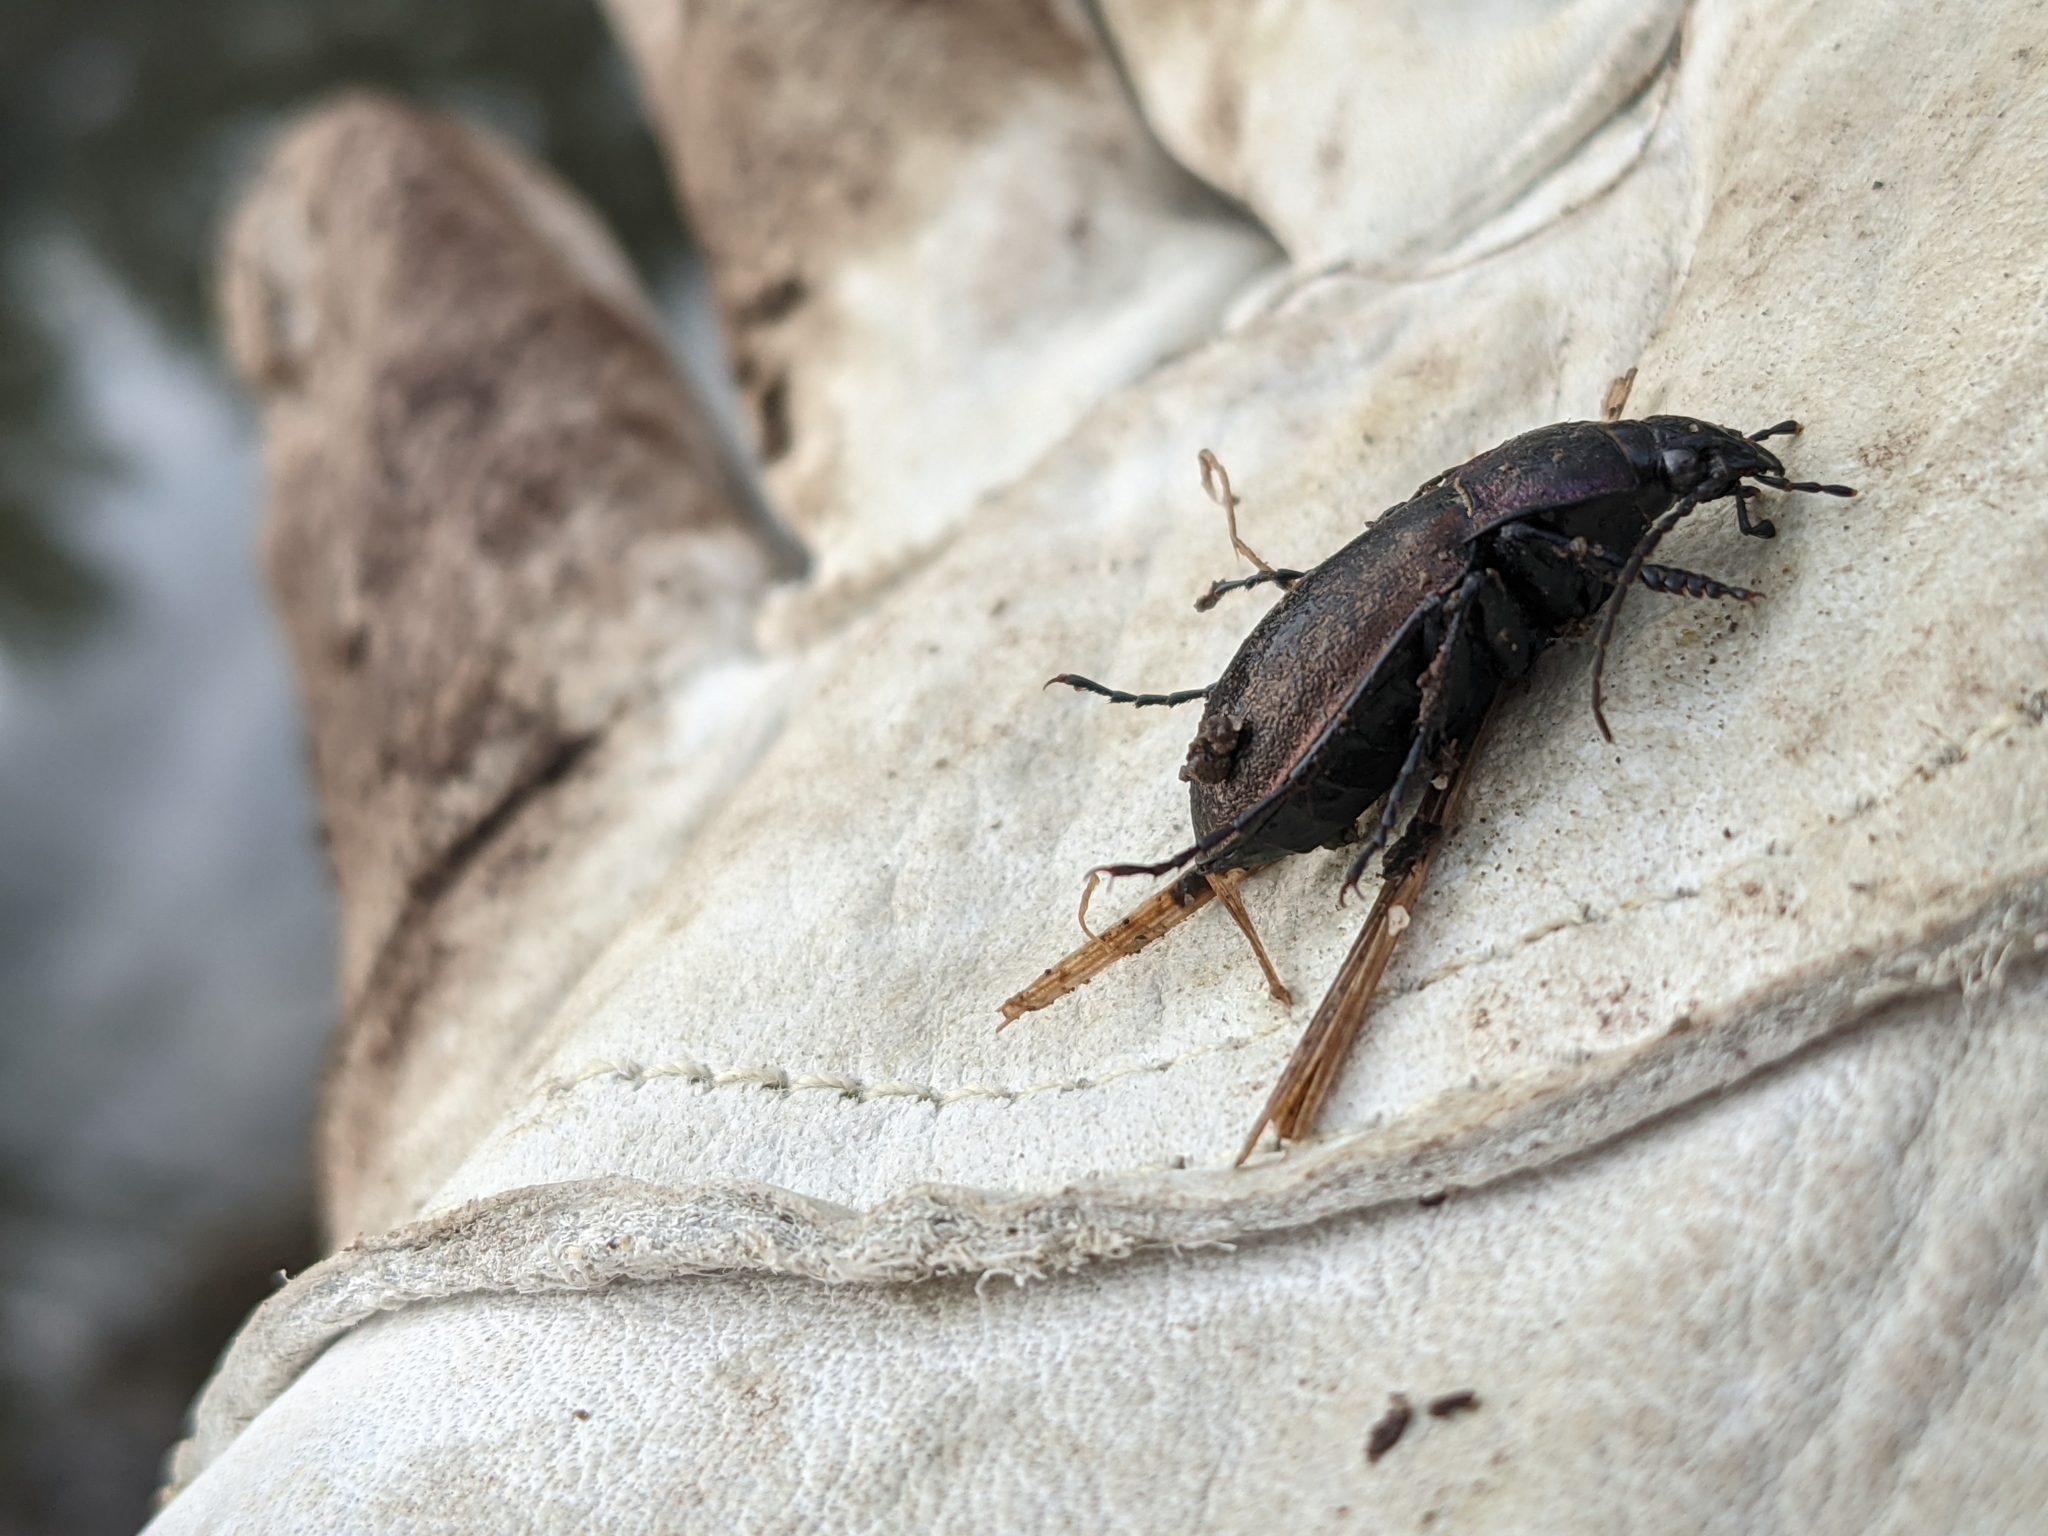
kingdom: Animalia
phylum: Arthropoda
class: Insecta
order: Coleoptera
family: Carabidae
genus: Carabus
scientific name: Carabus nemoralis
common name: European ground beetle
